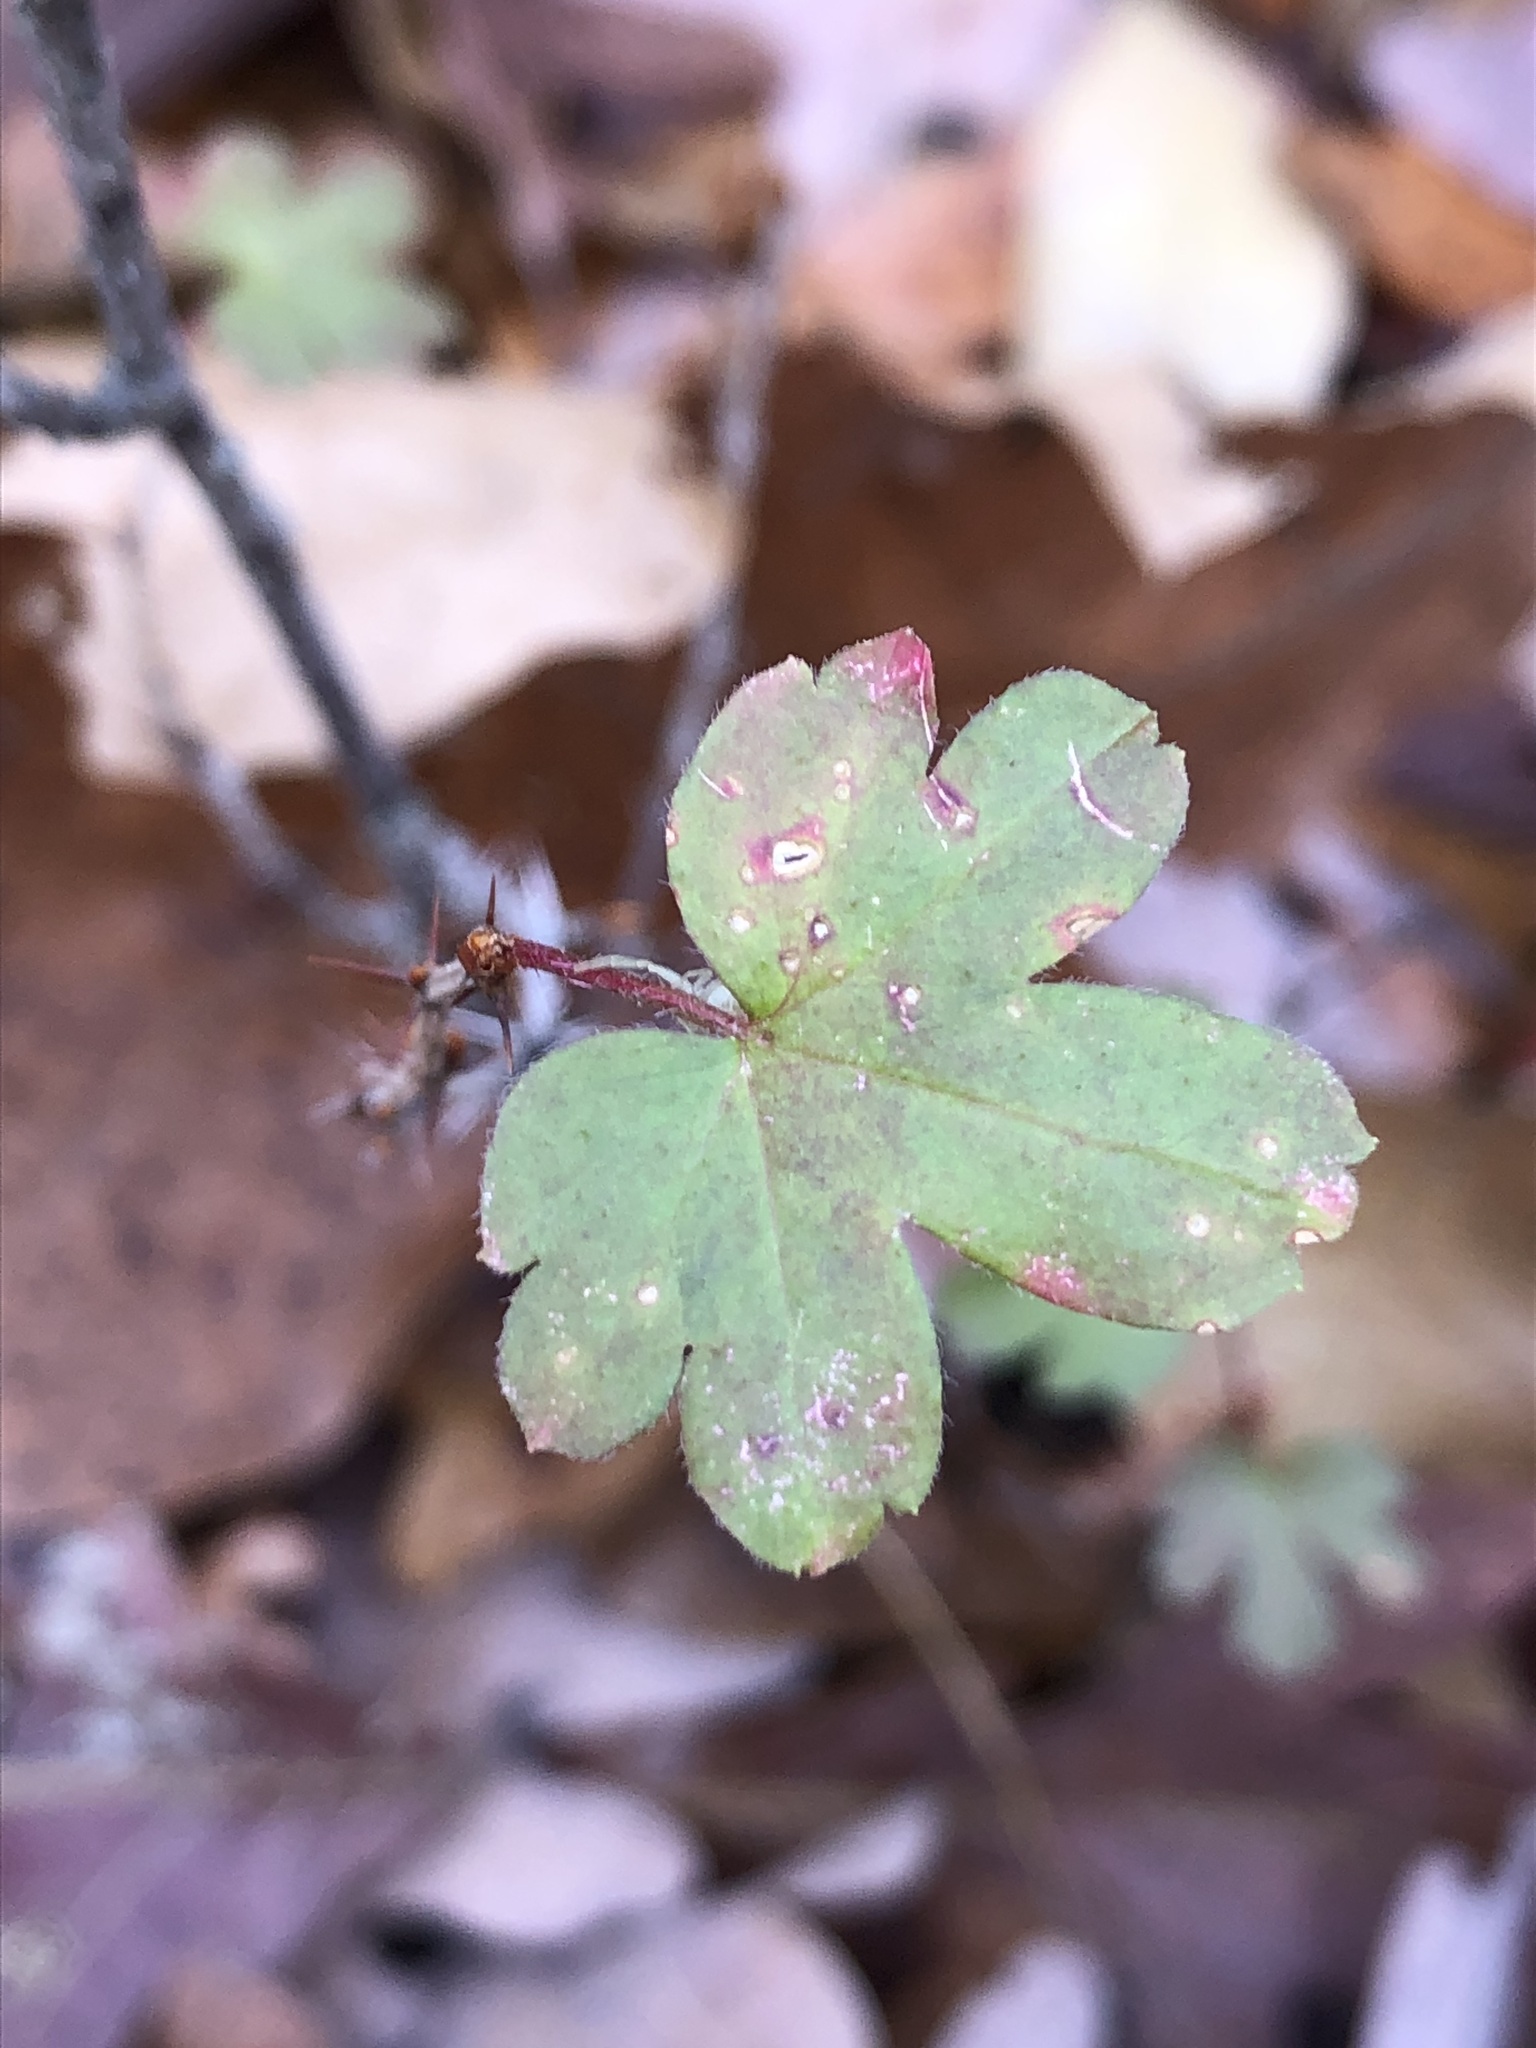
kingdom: Plantae
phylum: Tracheophyta
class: Magnoliopsida
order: Saxifragales
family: Grossulariaceae
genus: Ribes
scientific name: Ribes missouriense
